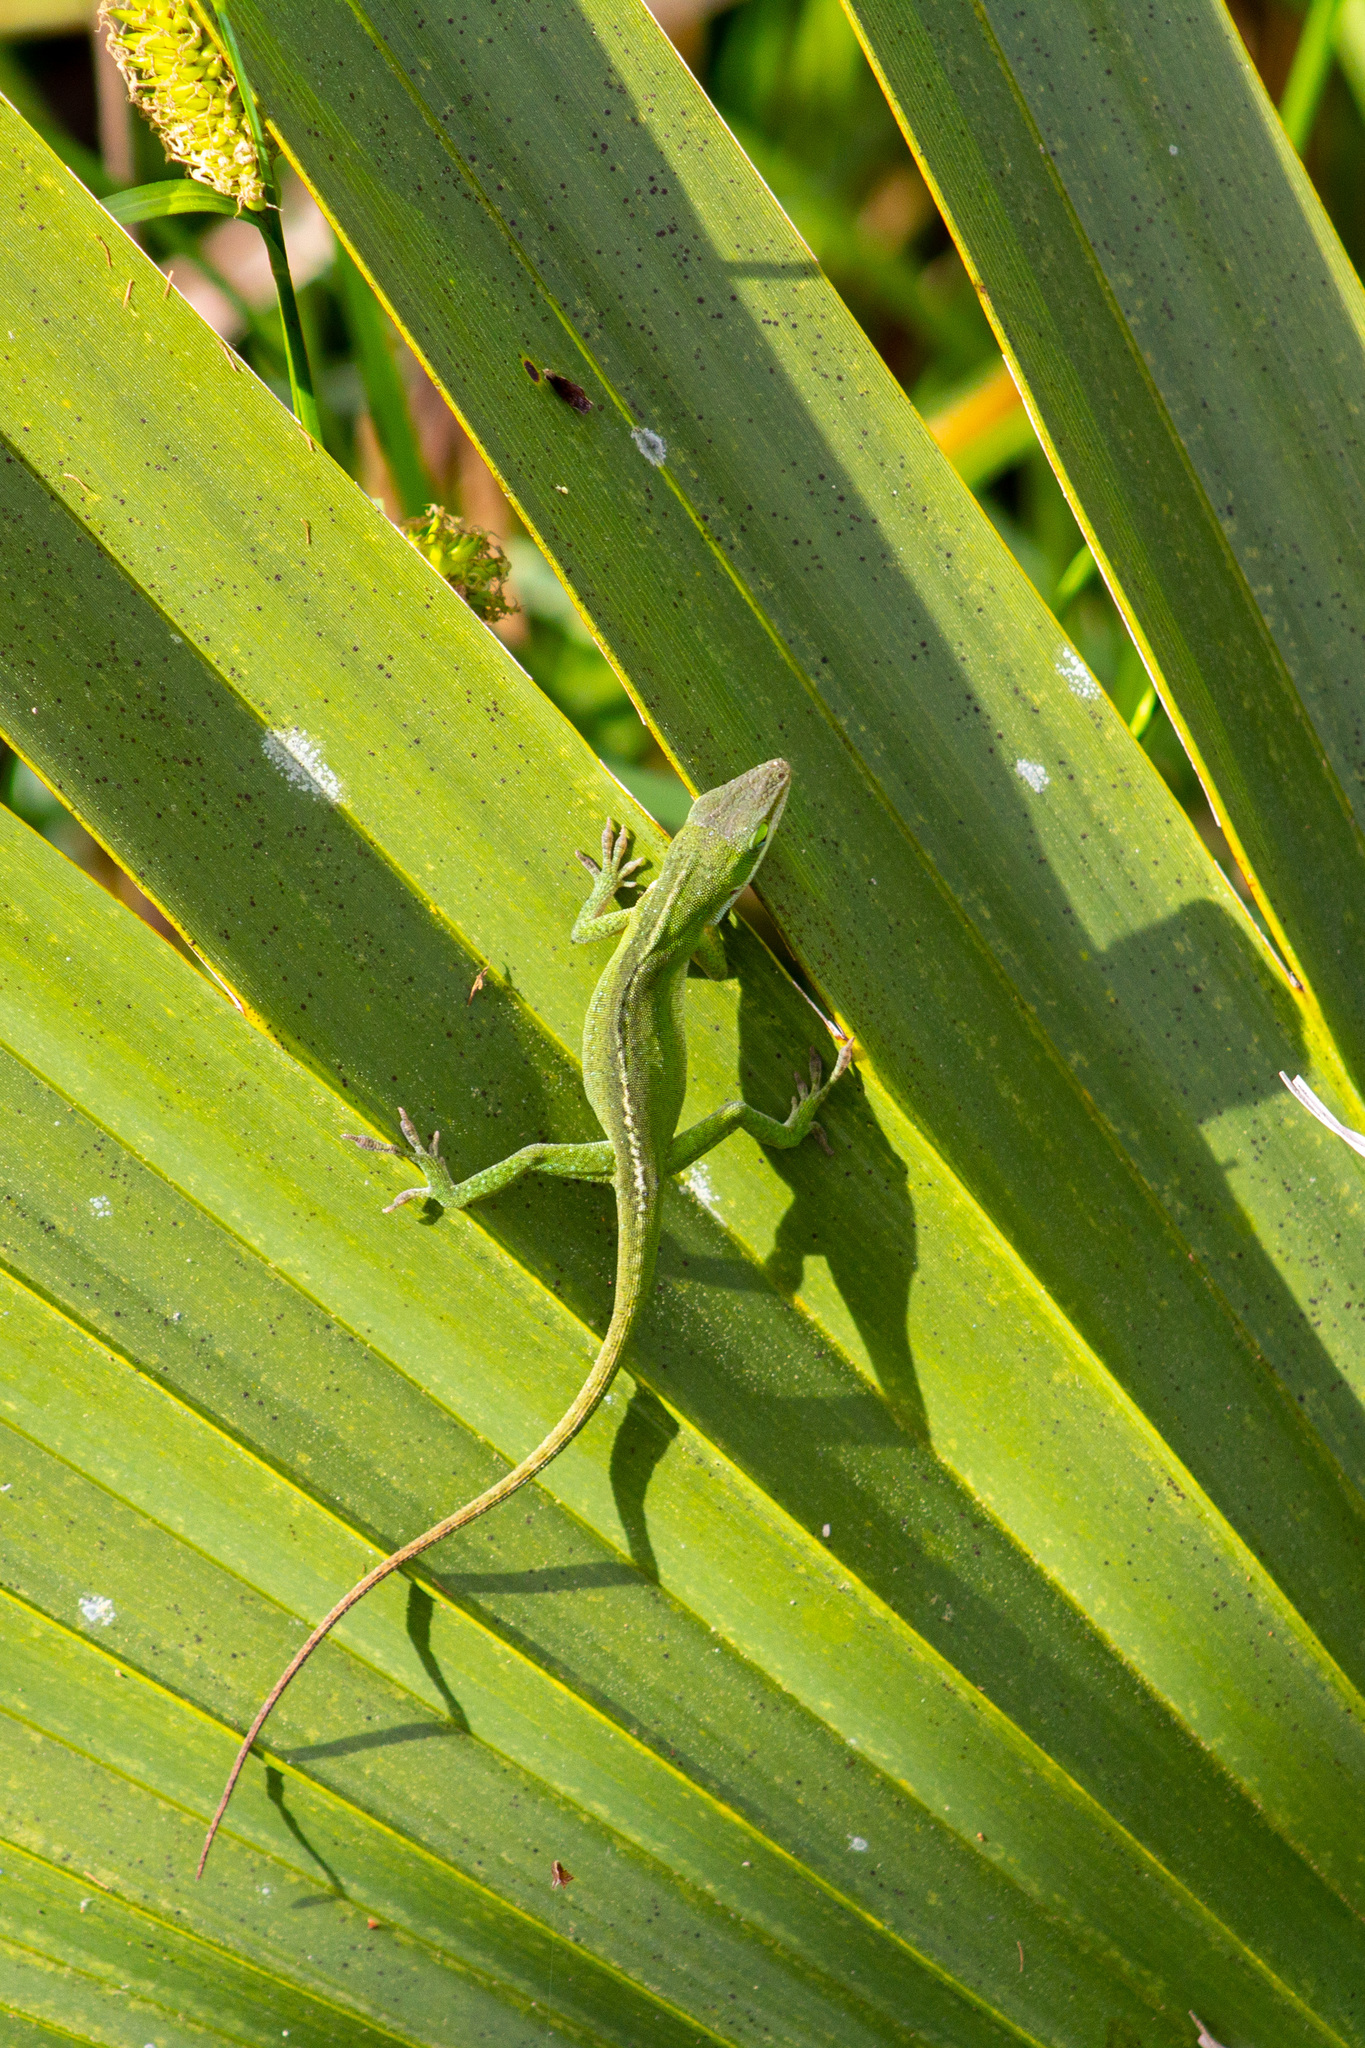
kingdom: Animalia
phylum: Chordata
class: Squamata
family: Dactyloidae
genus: Anolis
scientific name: Anolis carolinensis
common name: Green anole
